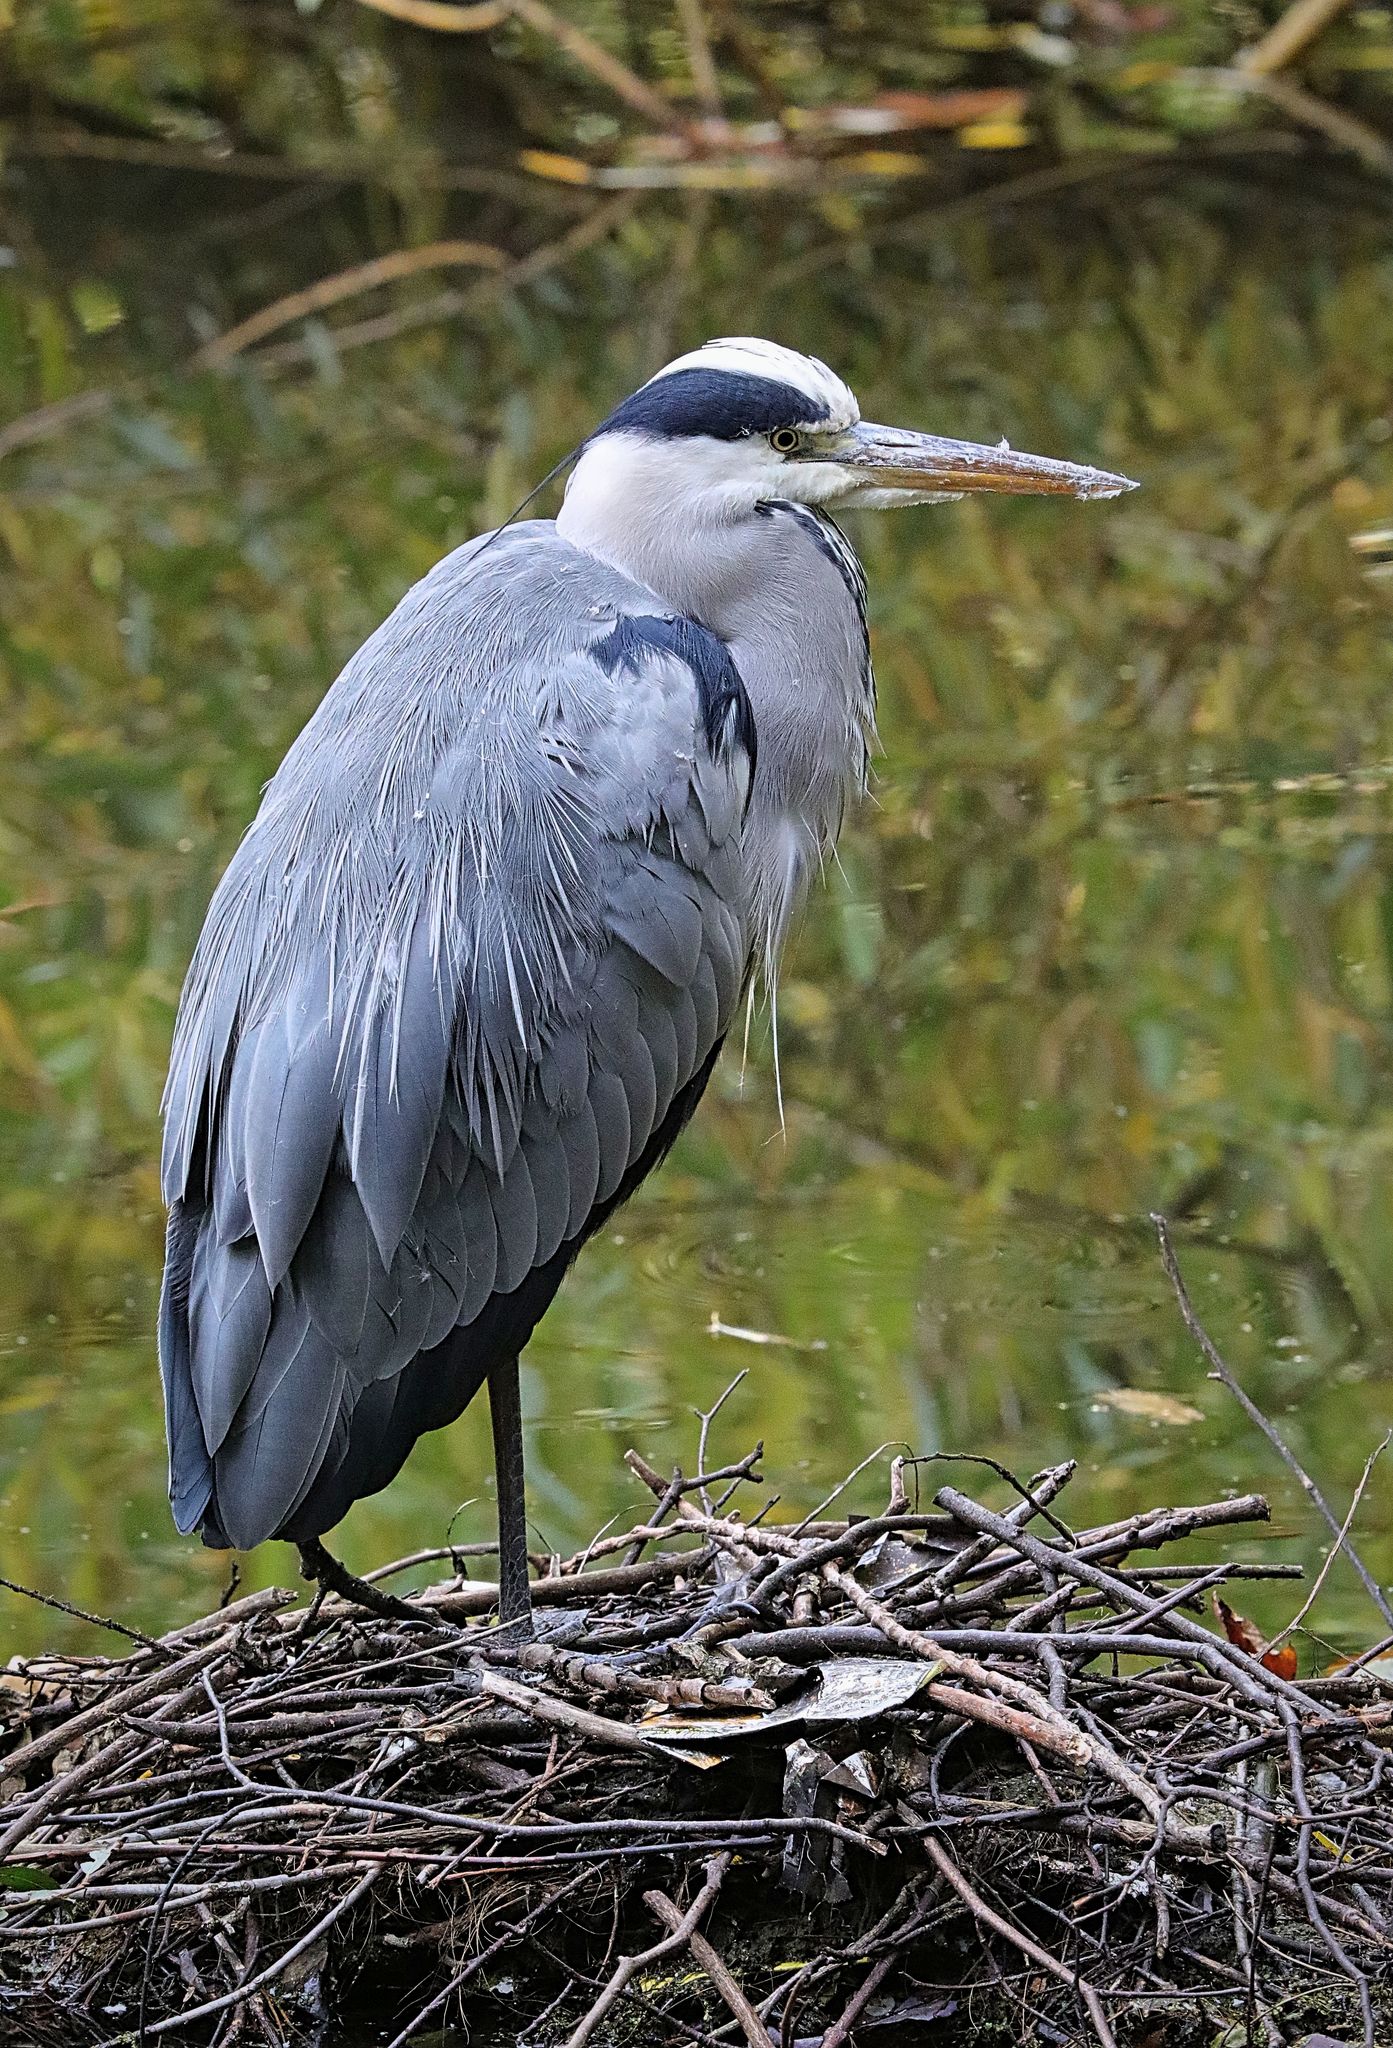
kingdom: Animalia
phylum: Chordata
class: Aves
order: Pelecaniformes
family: Ardeidae
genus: Ardea
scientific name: Ardea cinerea
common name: Grey heron
